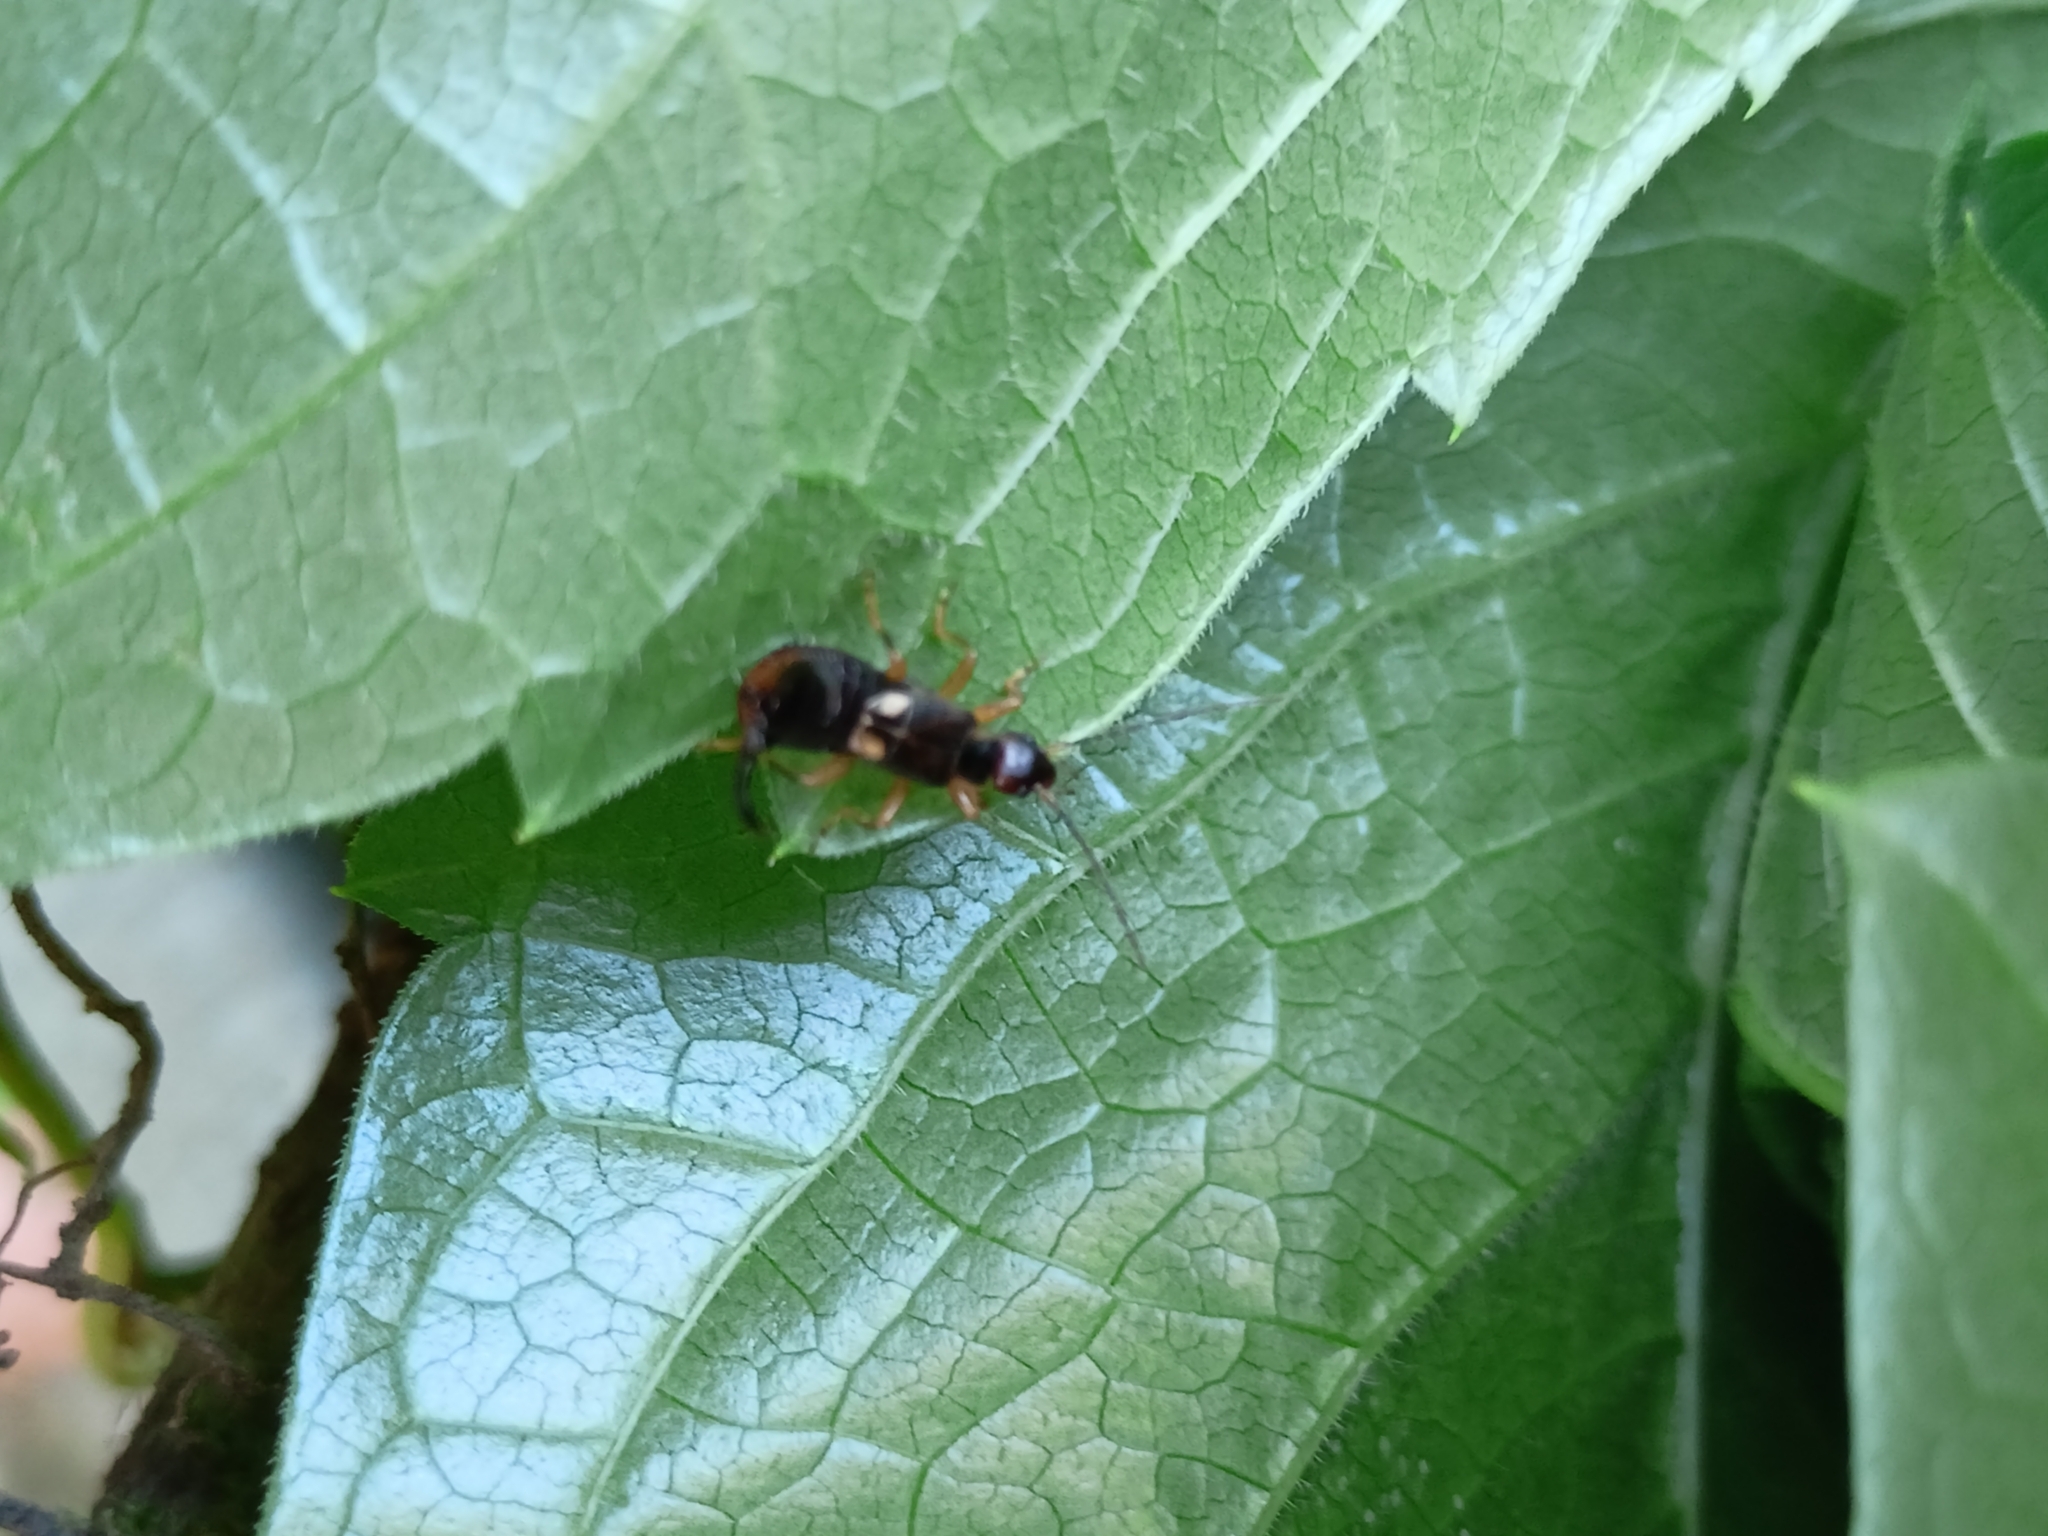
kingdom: Animalia
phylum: Arthropoda
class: Insecta
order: Dermaptera
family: Forficulidae
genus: Forficula
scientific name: Forficula
